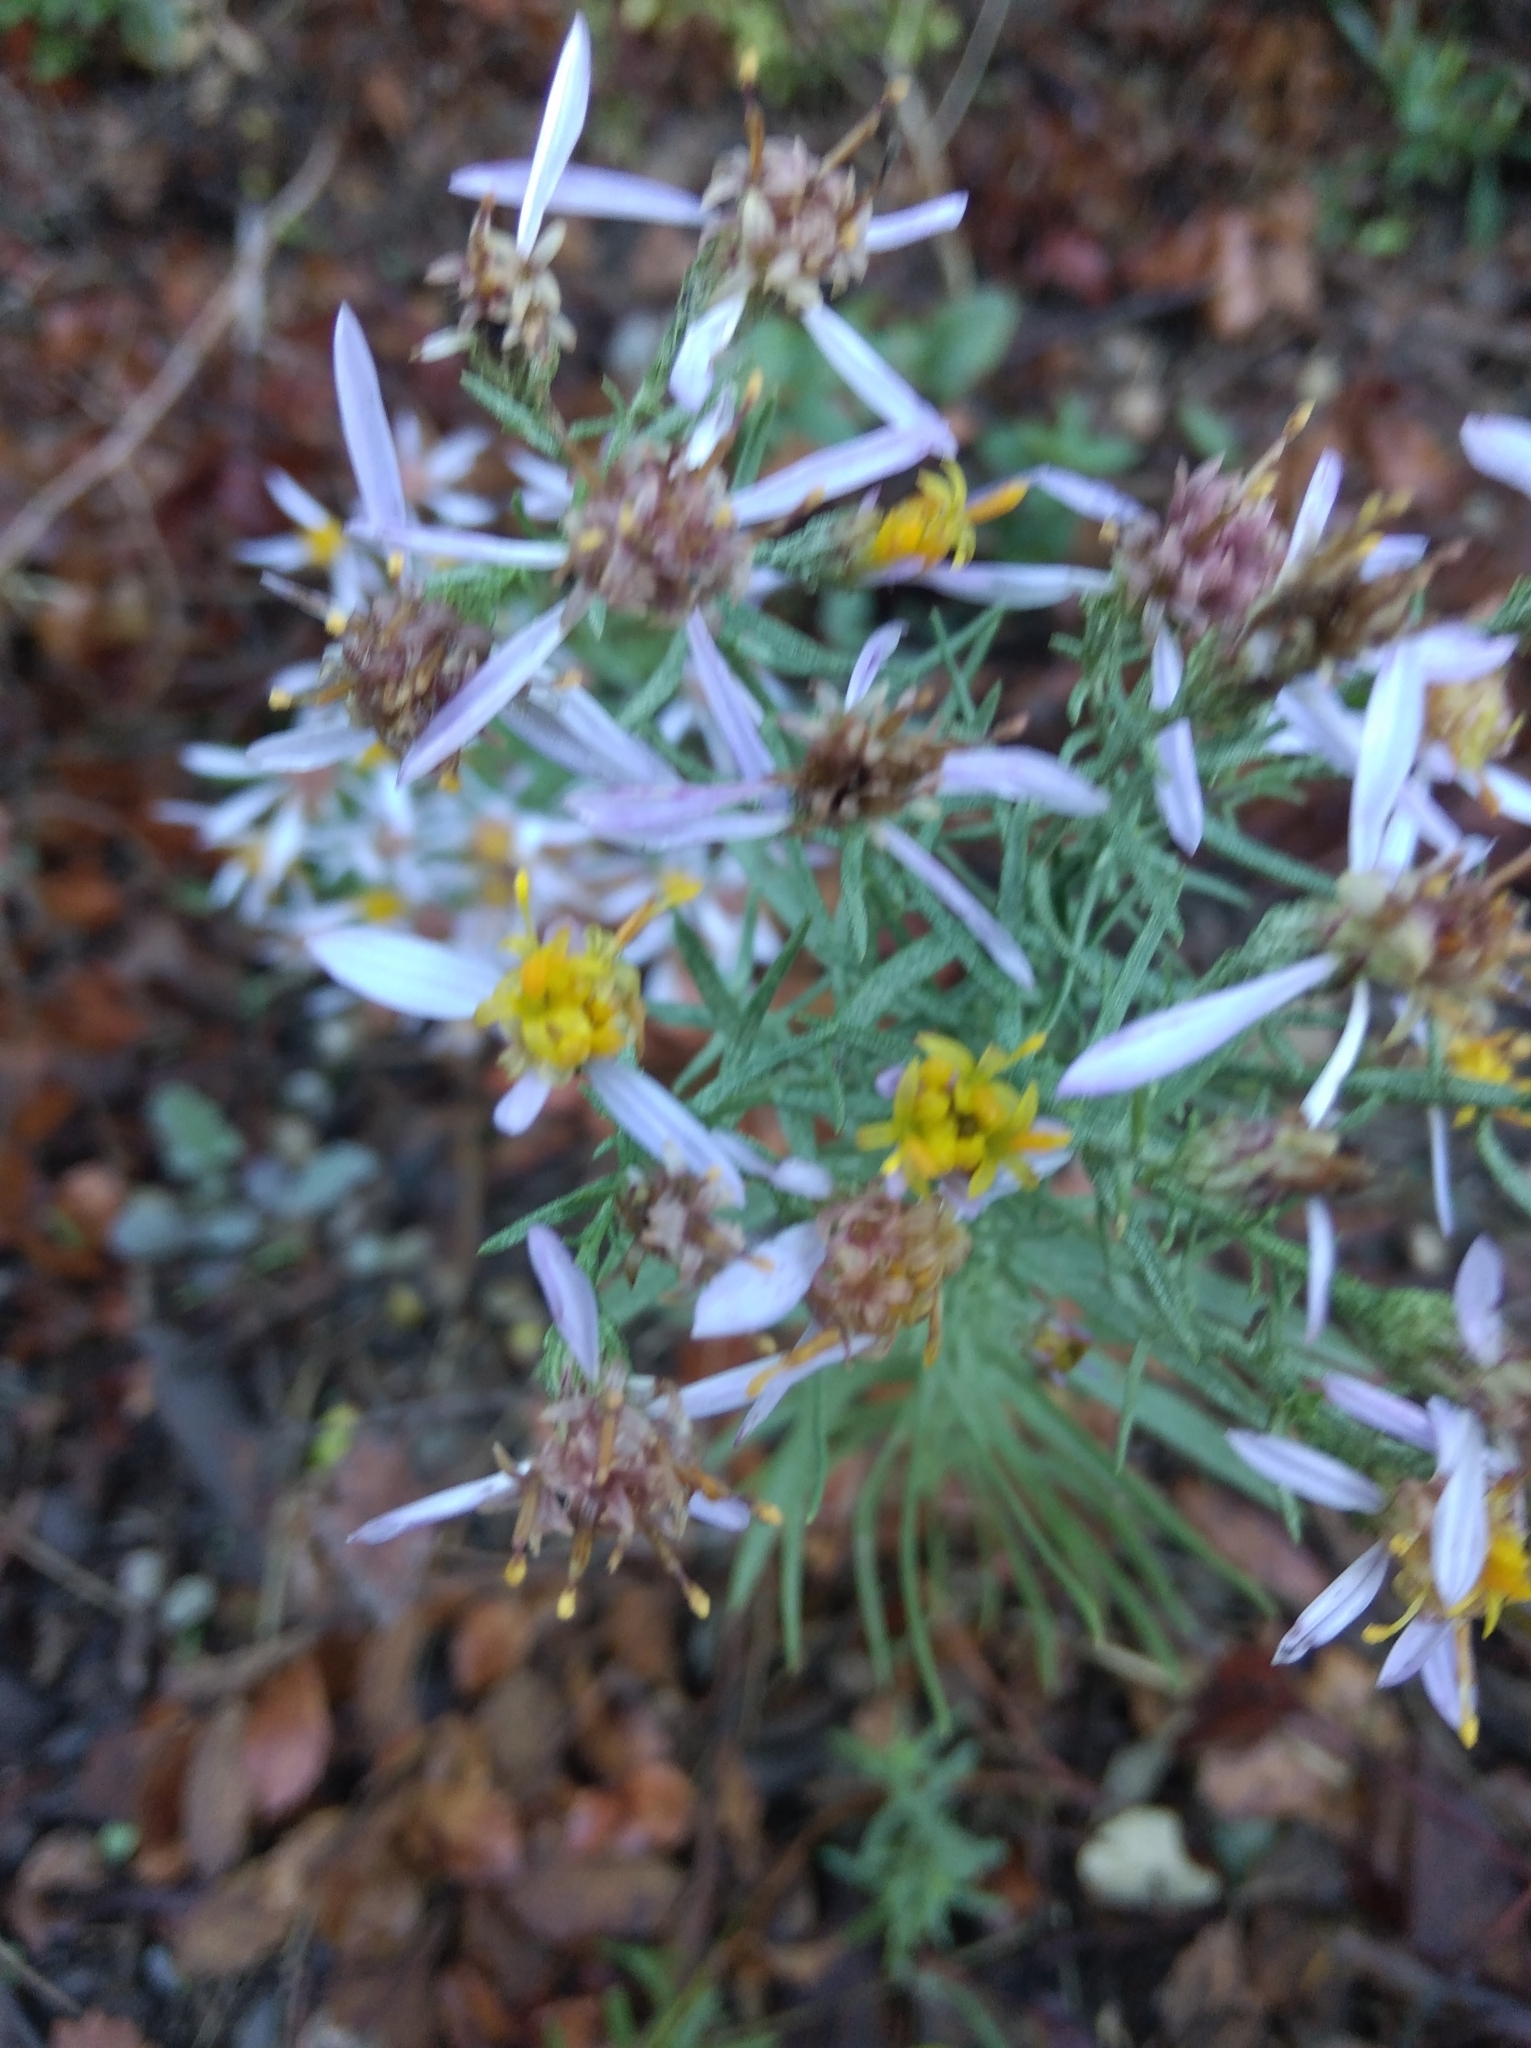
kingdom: Plantae
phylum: Tracheophyta
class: Magnoliopsida
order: Asterales
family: Asteraceae
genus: Galatella
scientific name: Galatella sedifolia
